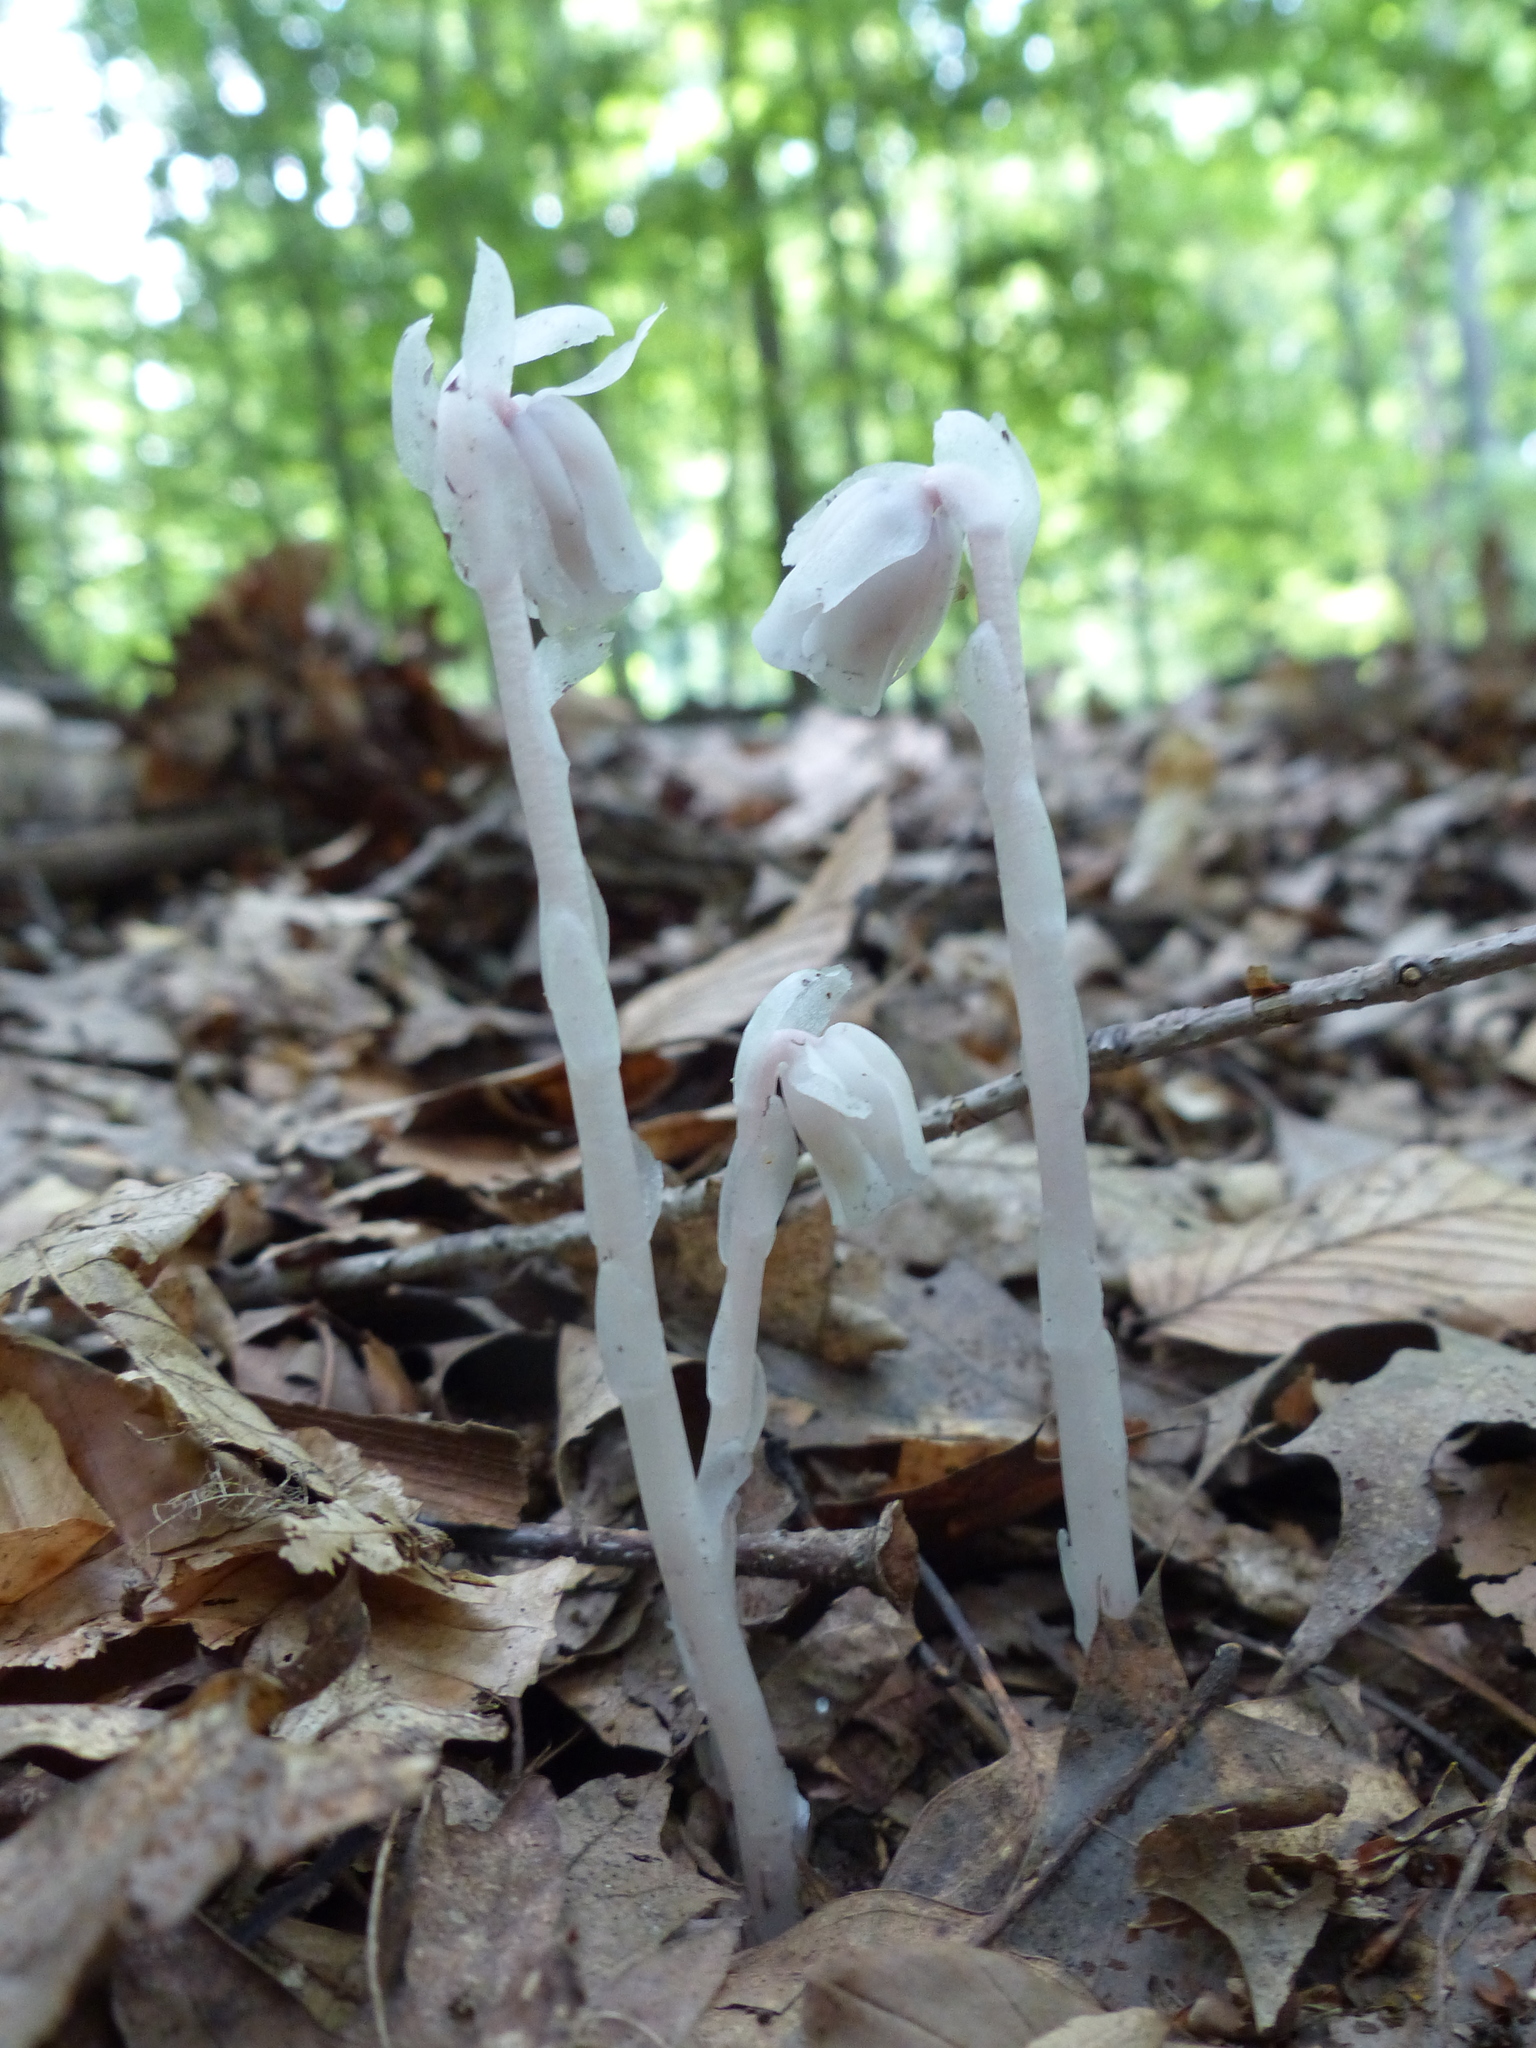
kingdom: Plantae
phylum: Tracheophyta
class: Magnoliopsida
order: Ericales
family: Ericaceae
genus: Monotropa
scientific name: Monotropa uniflora
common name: Convulsion root
